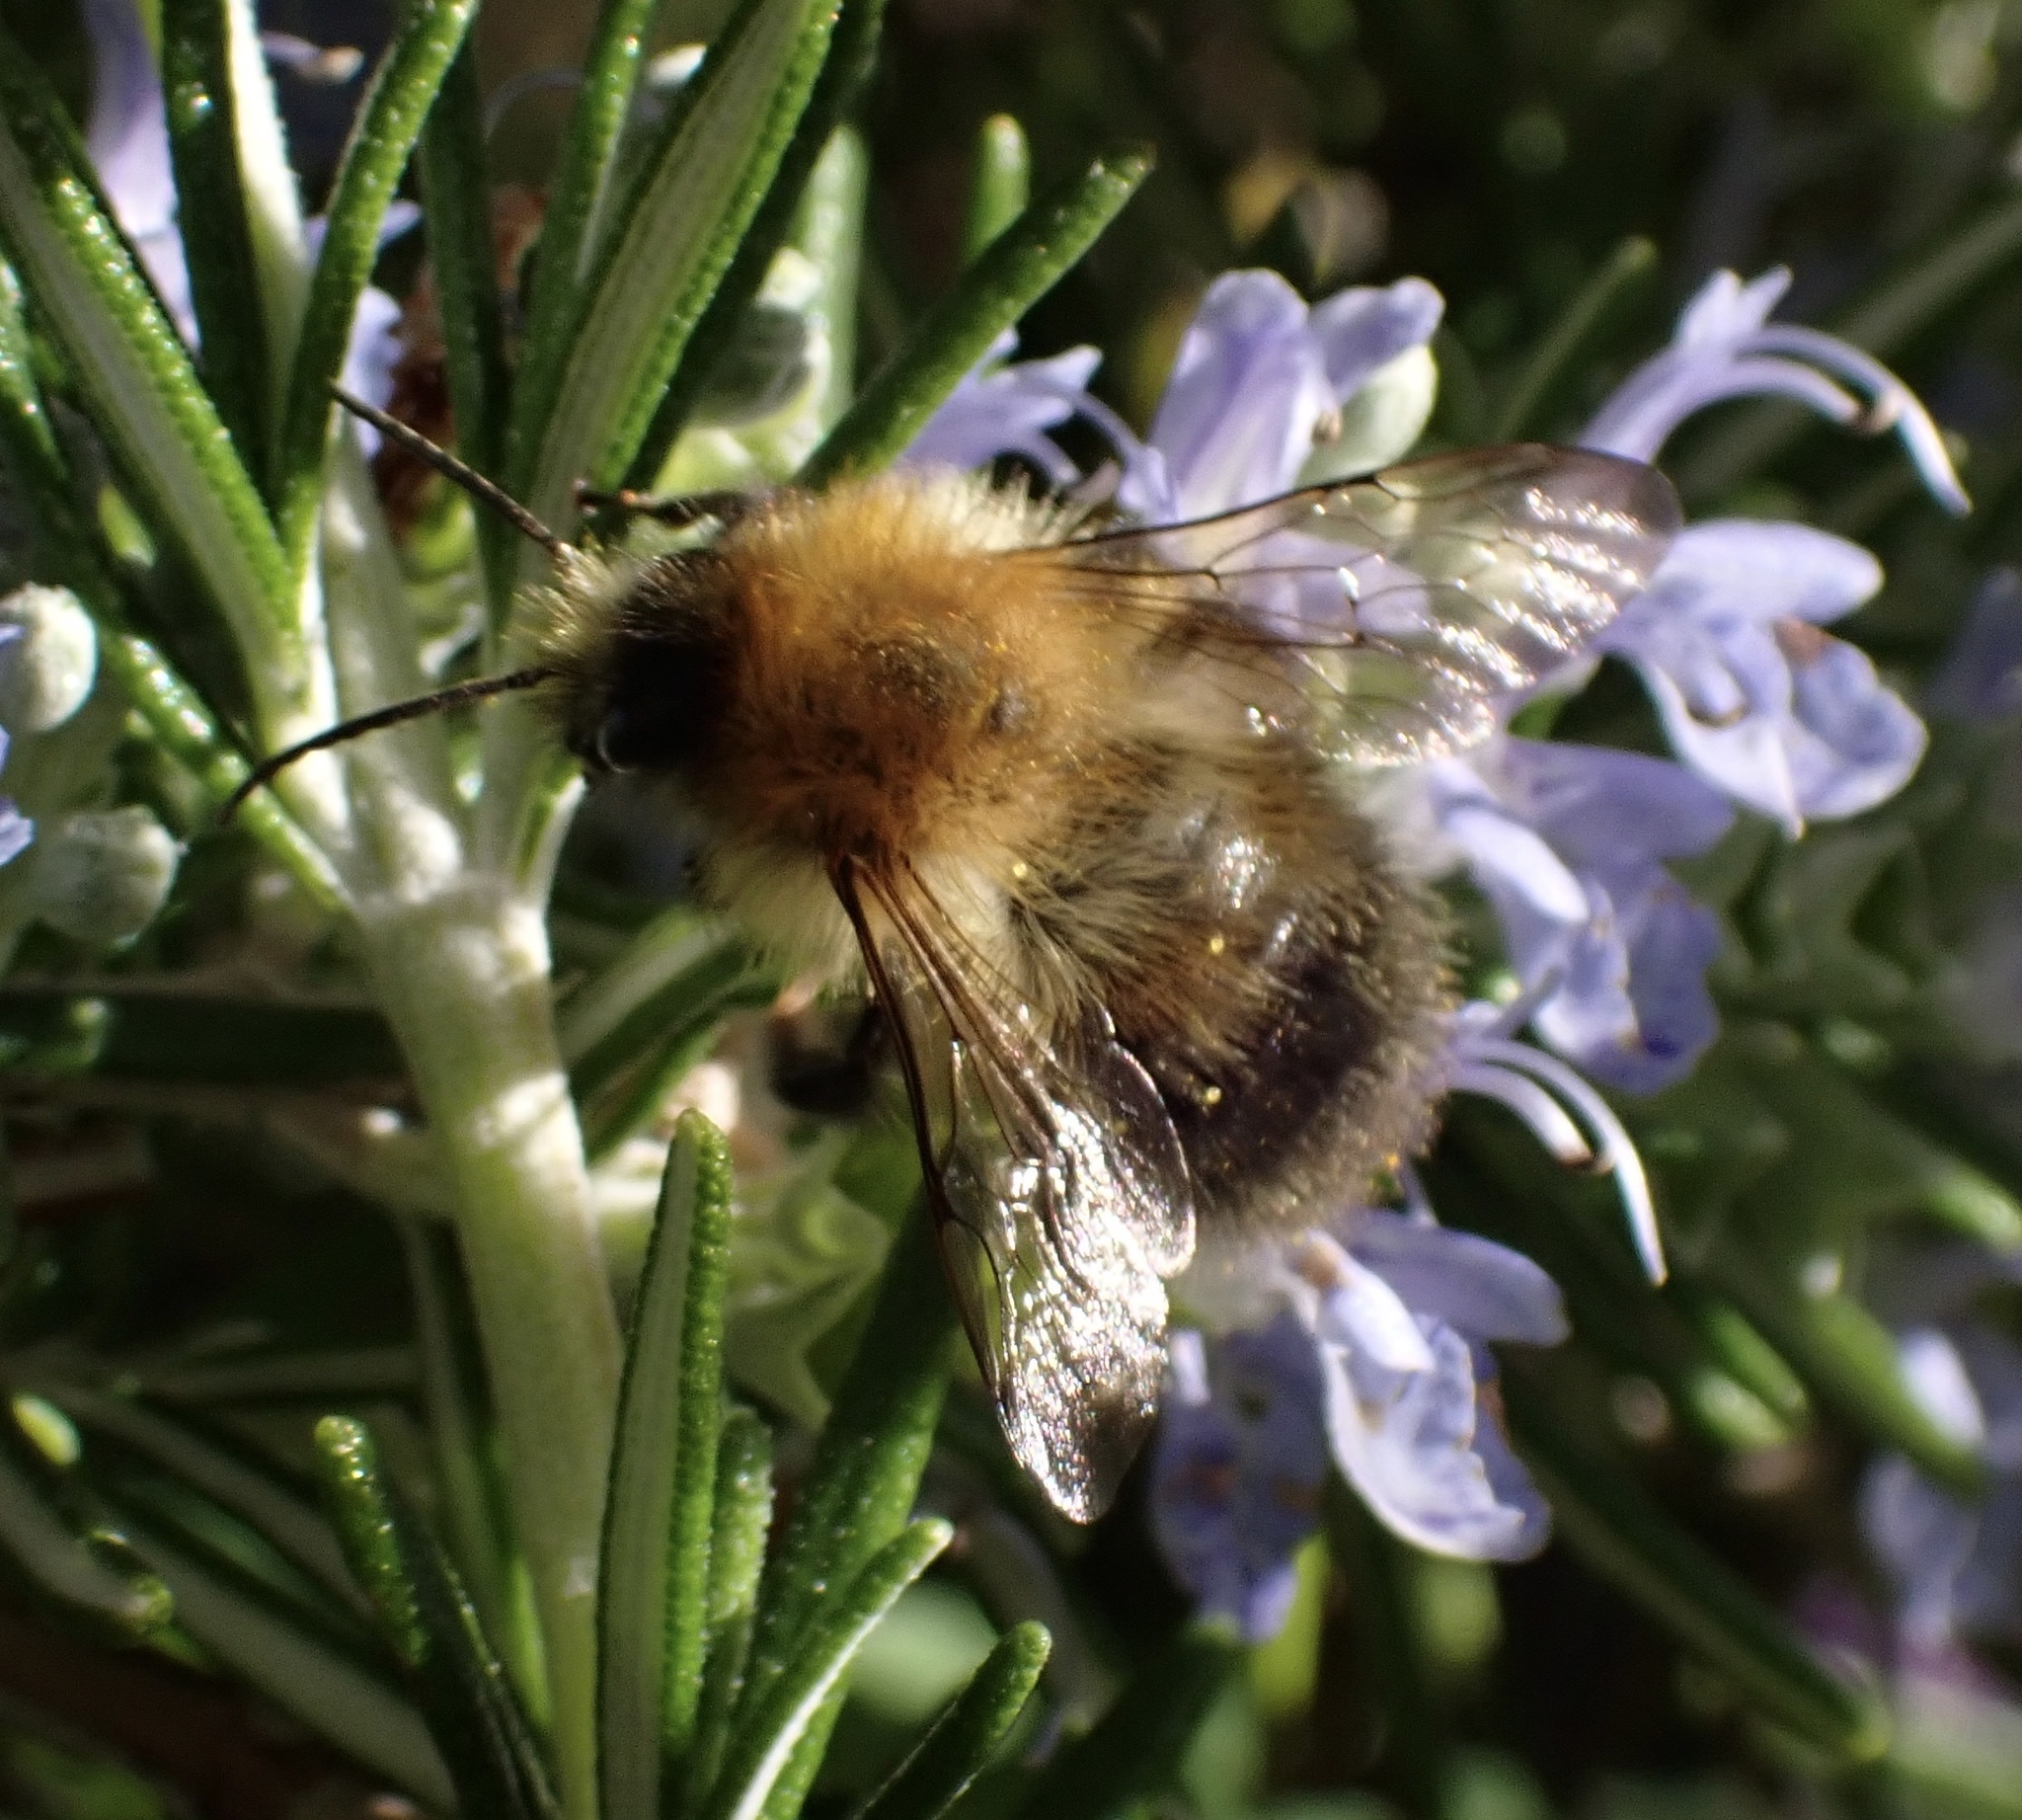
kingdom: Animalia
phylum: Arthropoda
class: Insecta
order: Hymenoptera
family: Apidae
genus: Bombus
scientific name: Bombus pascuorum
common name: Common carder bee
